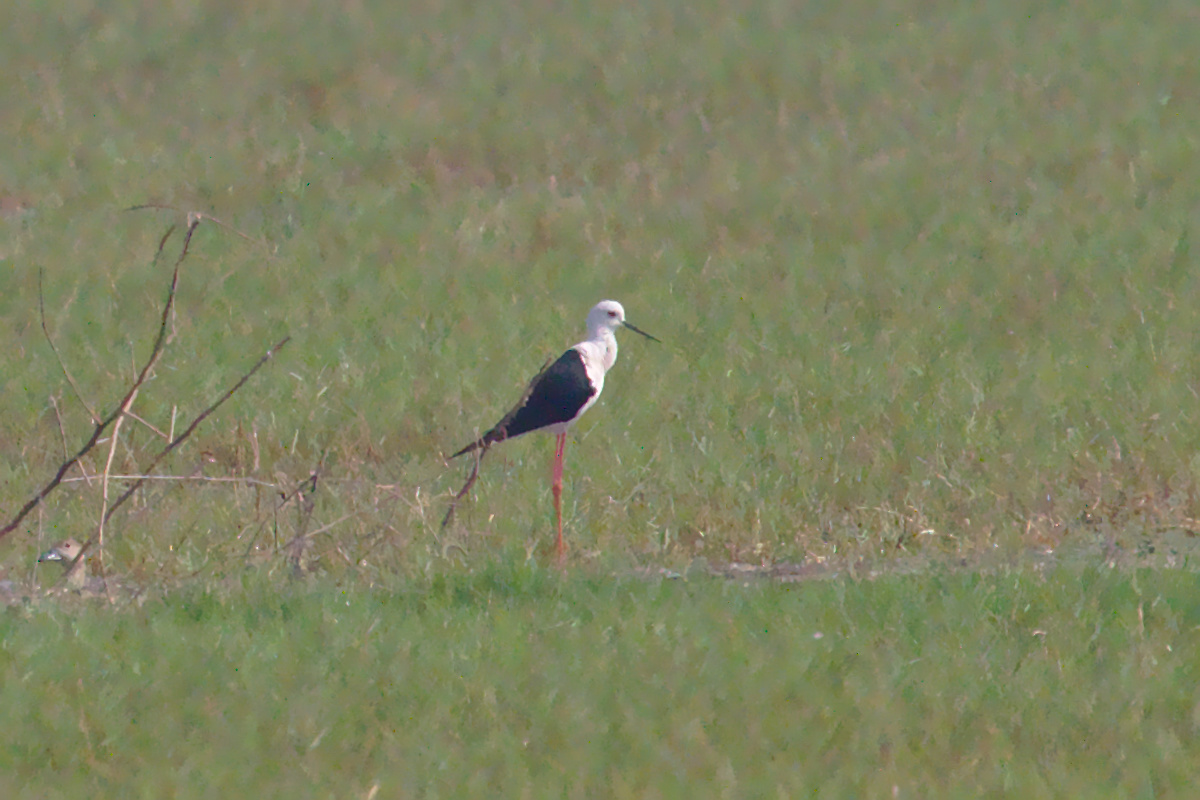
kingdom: Animalia
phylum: Chordata
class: Aves
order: Charadriiformes
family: Recurvirostridae
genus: Himantopus
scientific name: Himantopus himantopus
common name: Black-winged stilt
